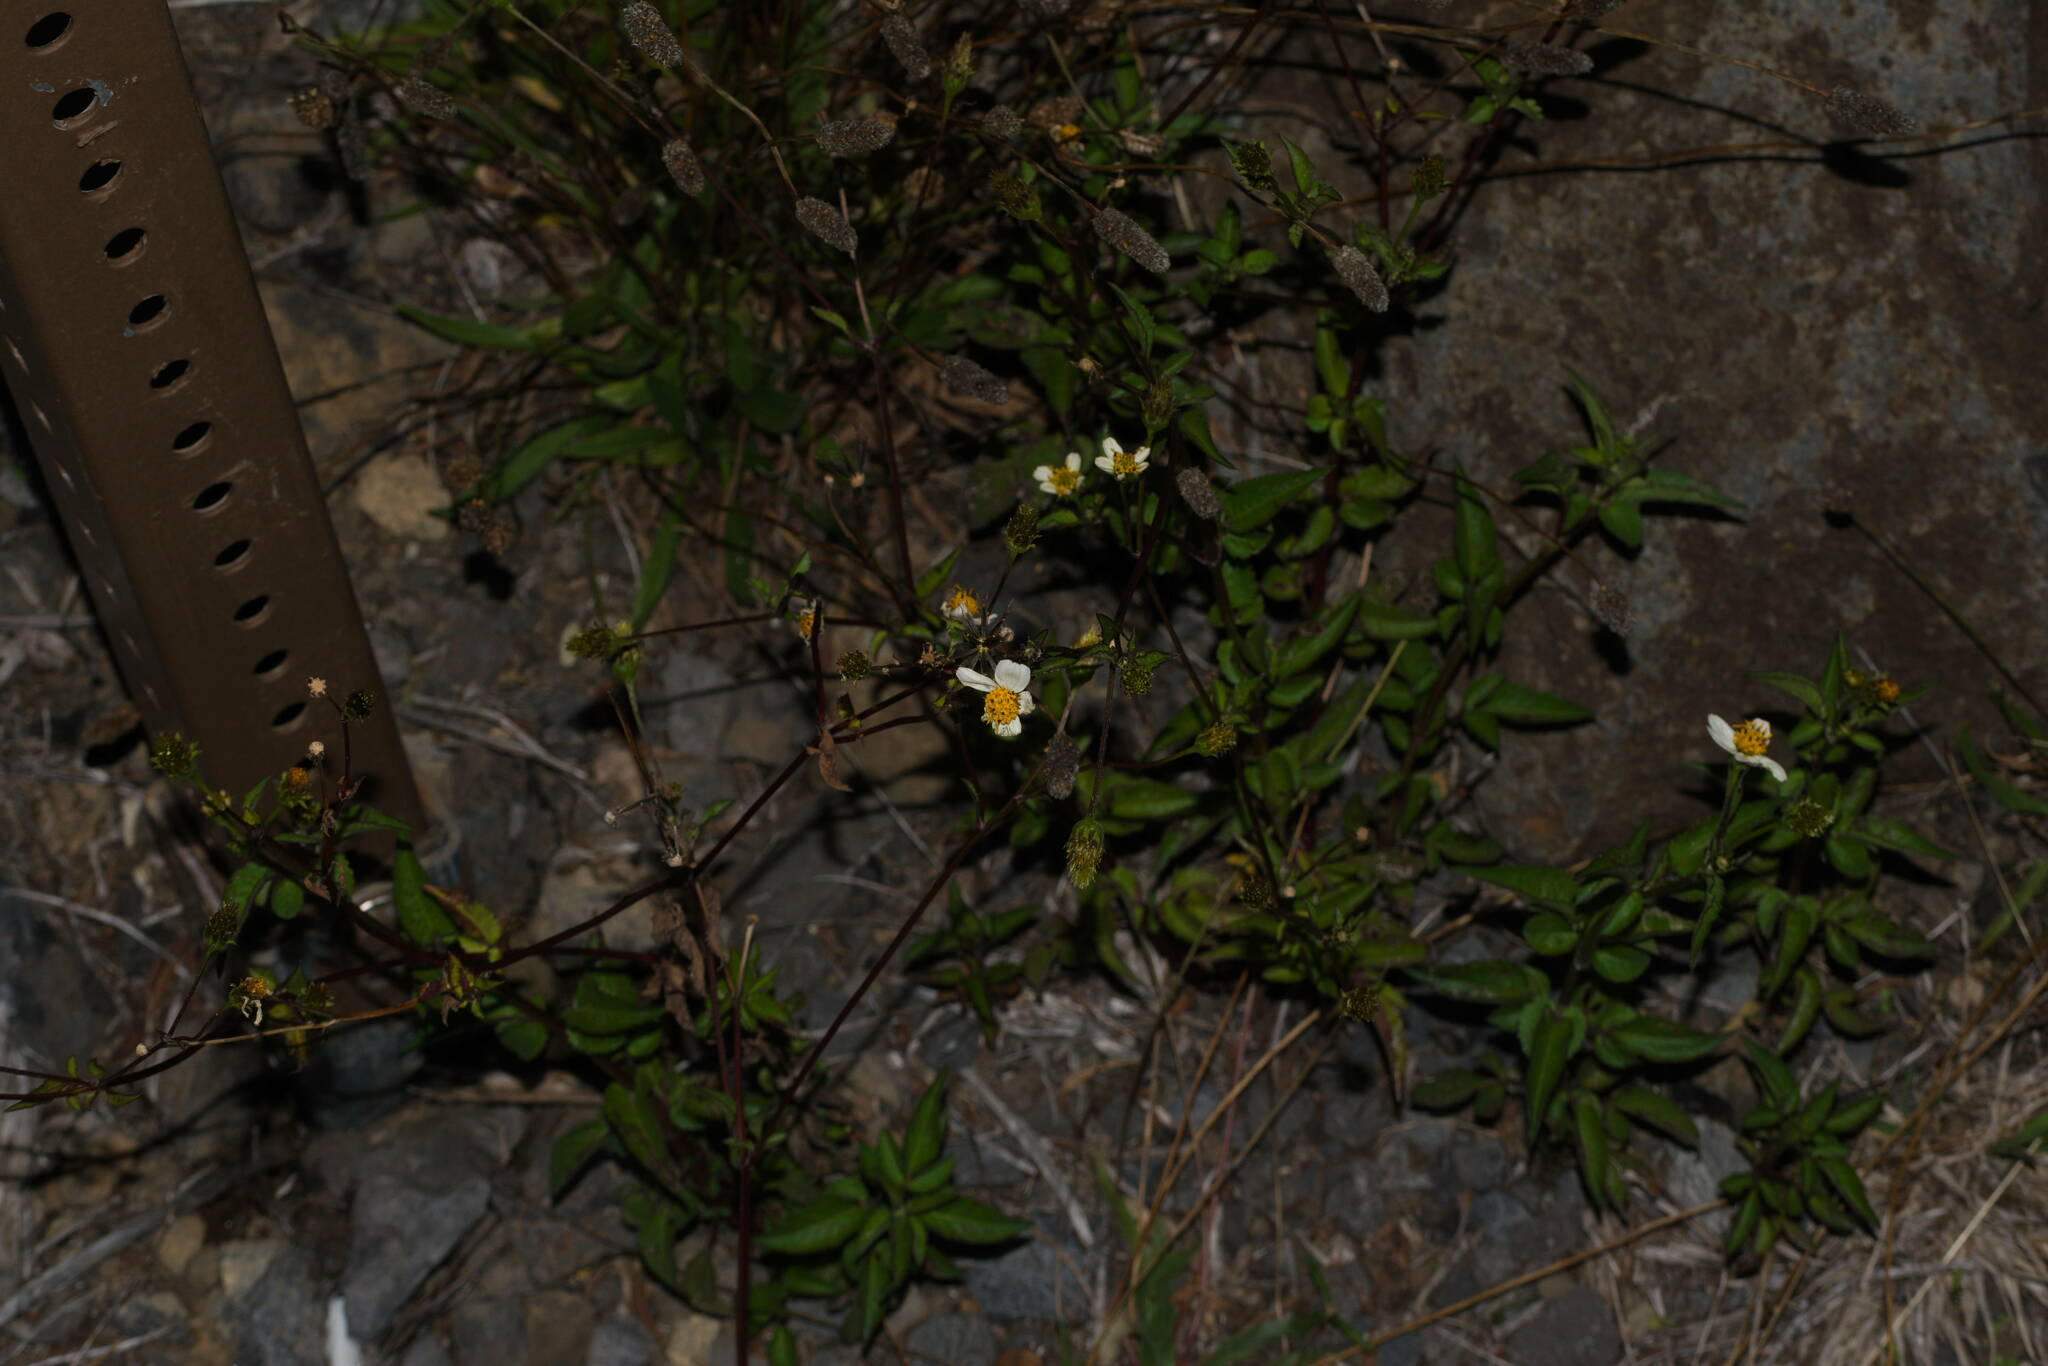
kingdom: Plantae
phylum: Tracheophyta
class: Magnoliopsida
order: Asterales
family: Asteraceae
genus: Bidens
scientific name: Bidens alba
